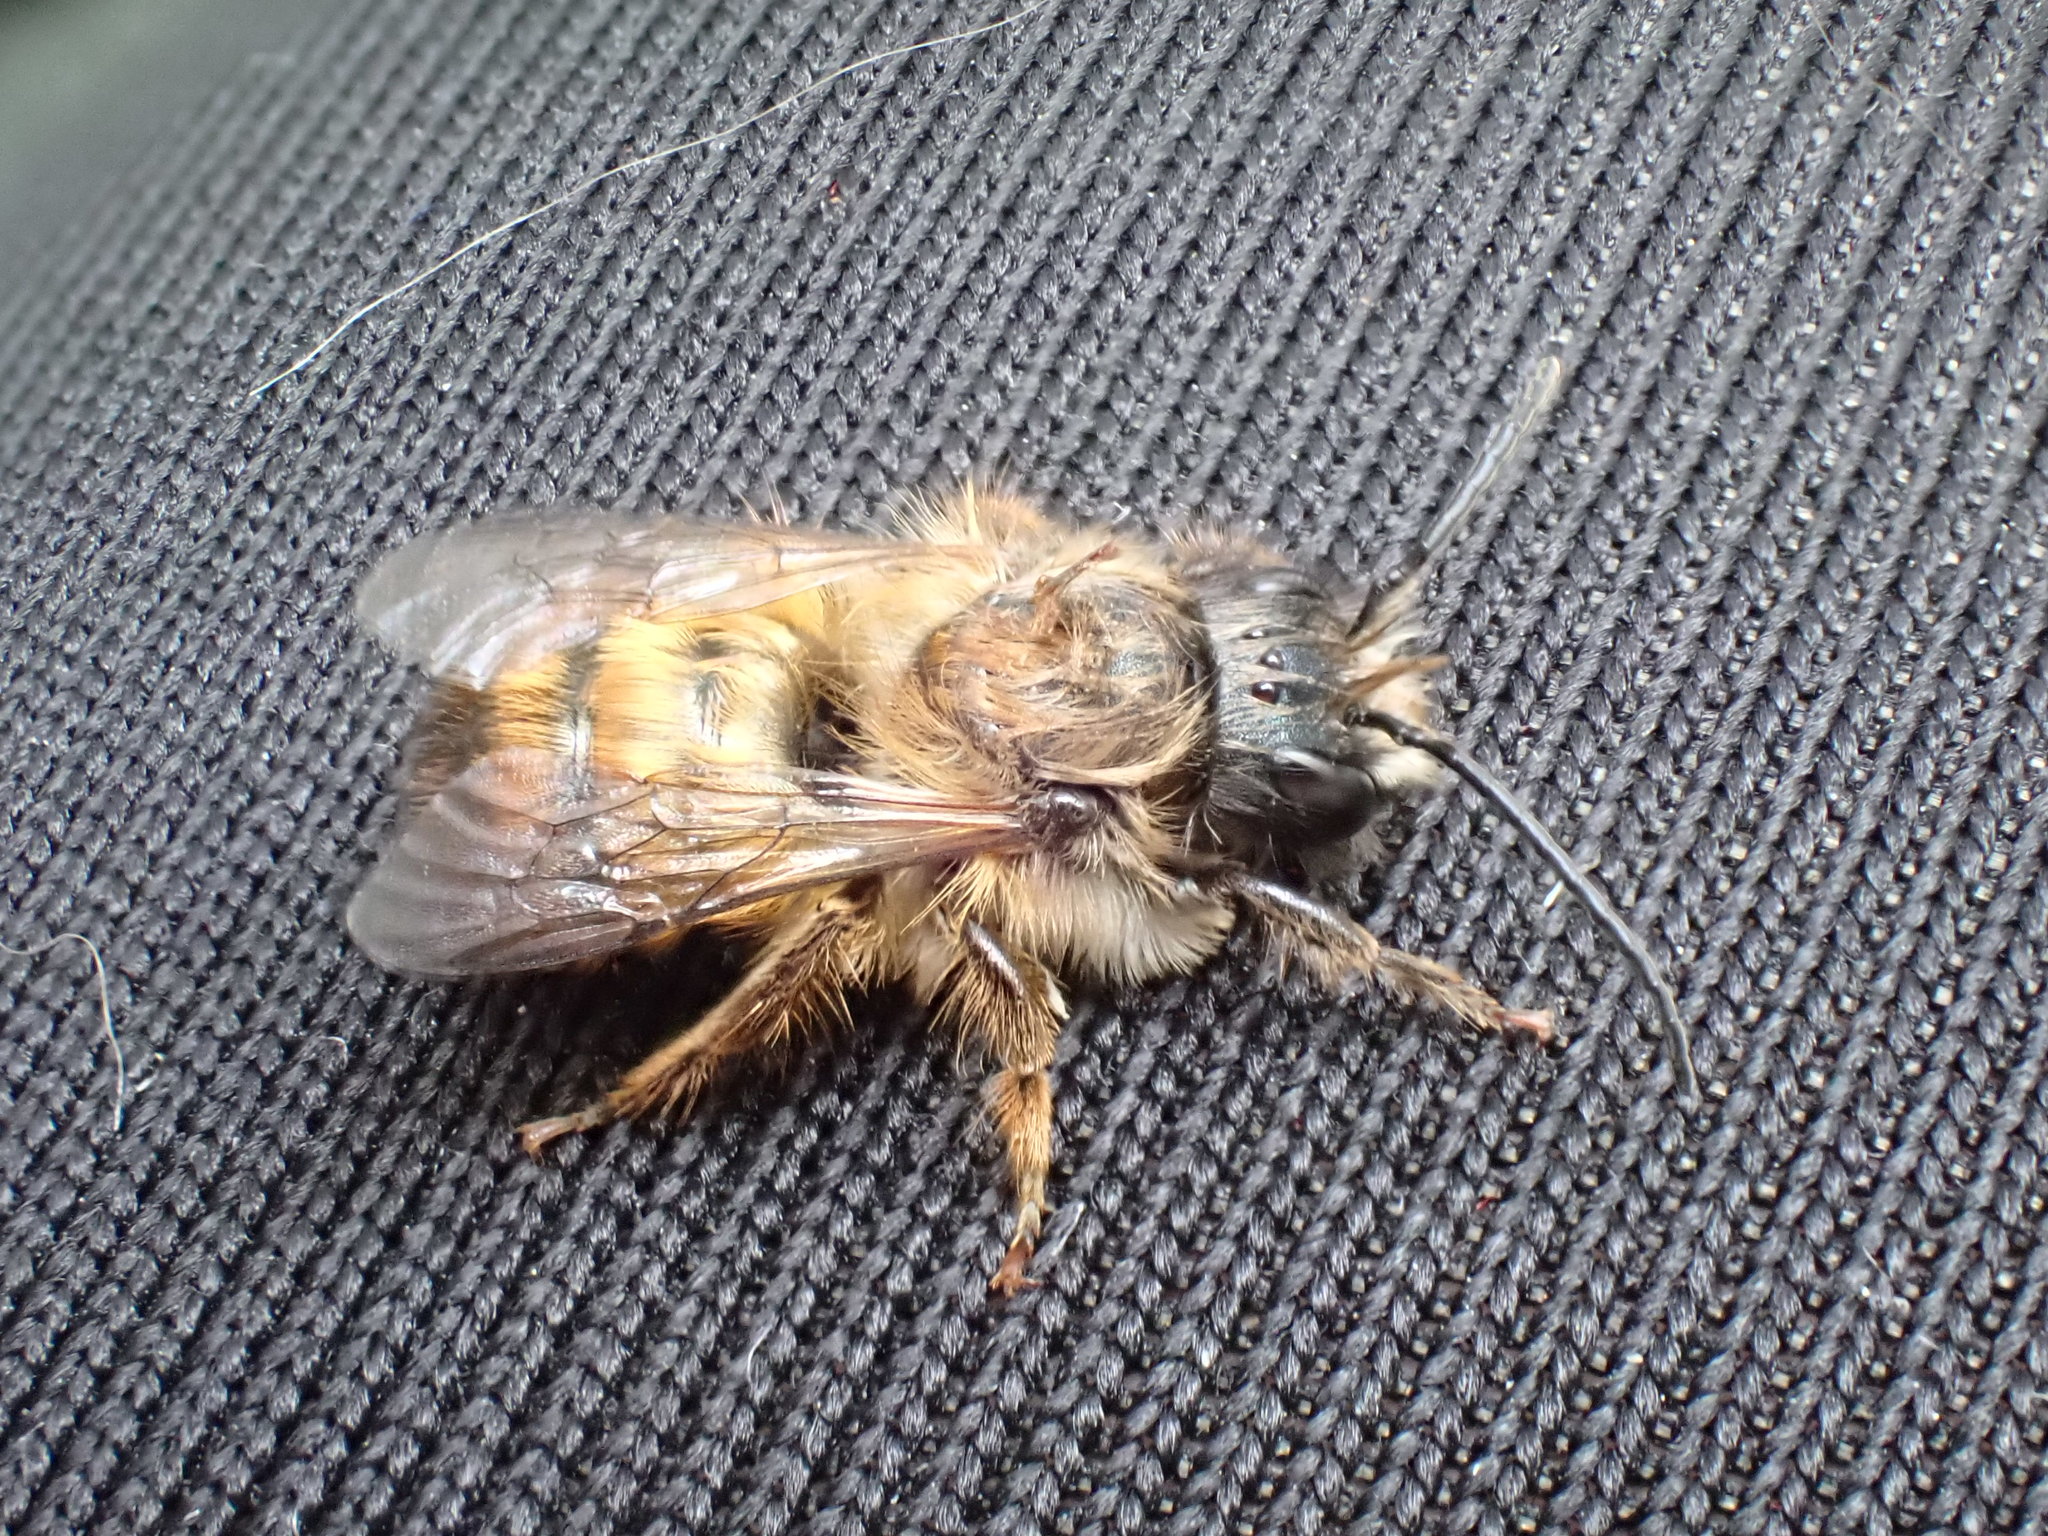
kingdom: Animalia
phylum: Arthropoda
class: Insecta
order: Hymenoptera
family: Megachilidae
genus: Osmia
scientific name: Osmia bicornis
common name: Red mason bee
